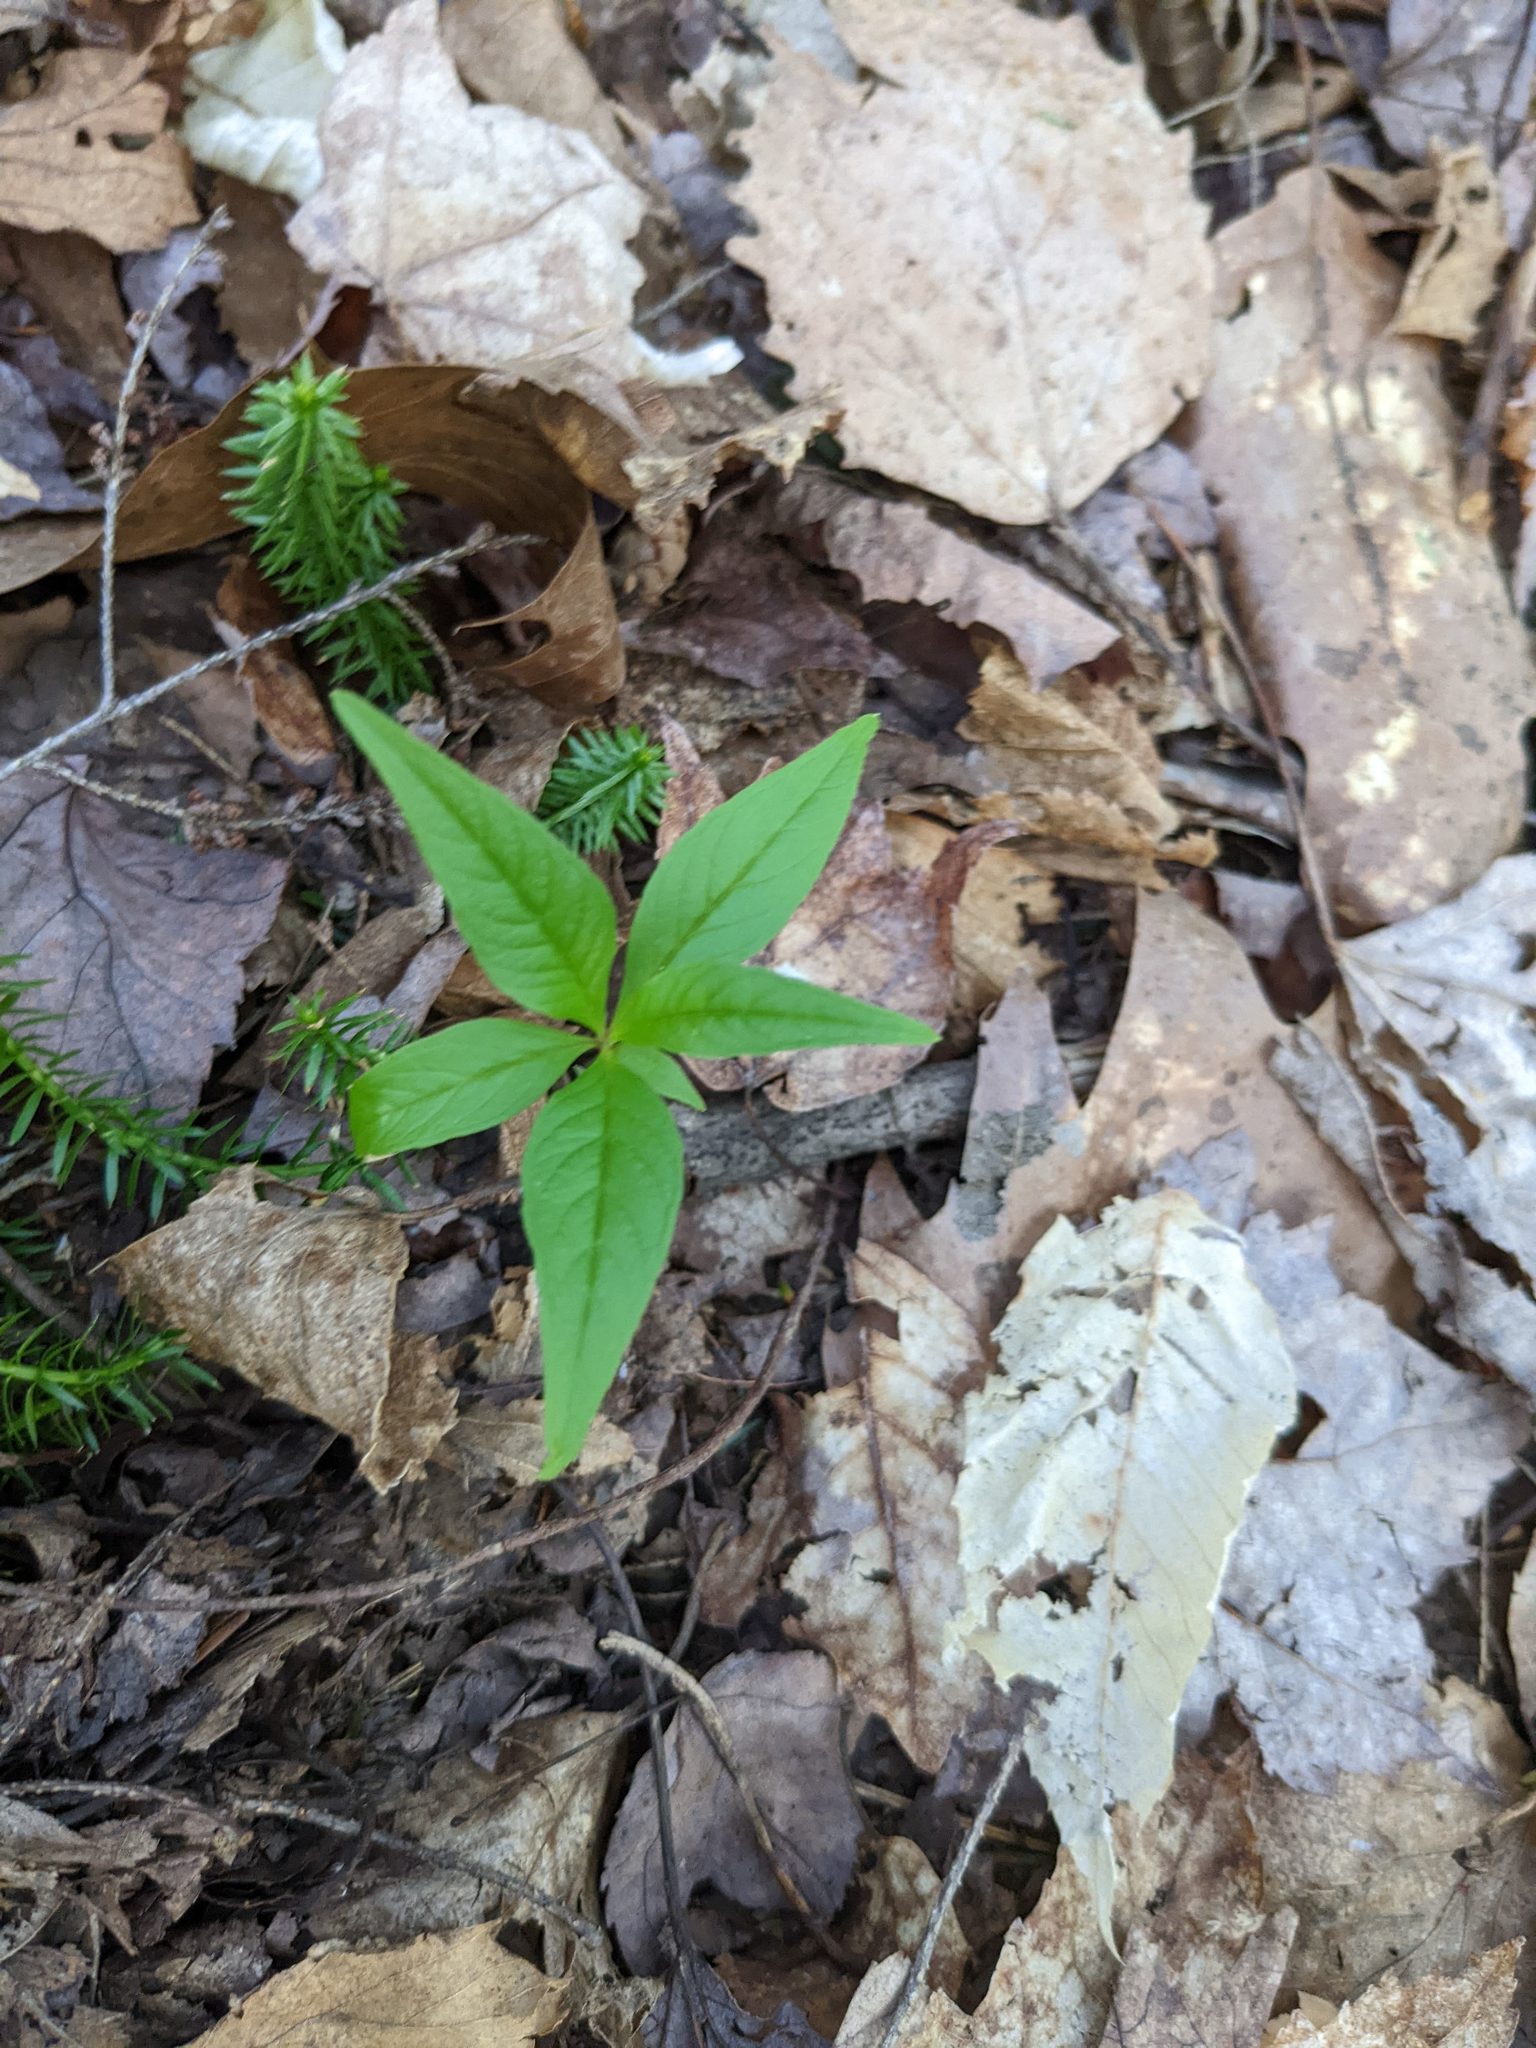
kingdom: Plantae
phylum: Tracheophyta
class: Magnoliopsida
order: Ericales
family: Primulaceae
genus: Lysimachia
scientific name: Lysimachia borealis
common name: American starflower
